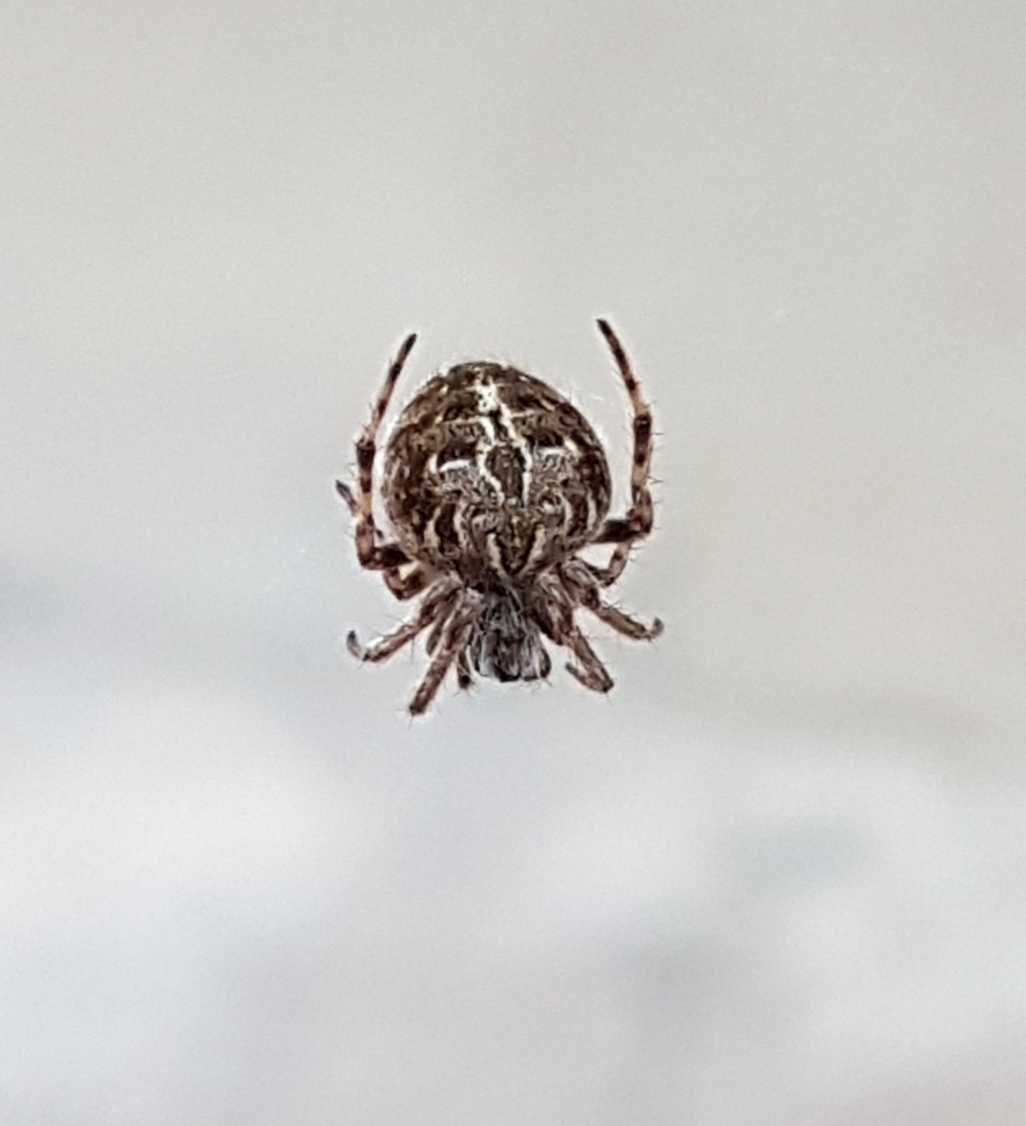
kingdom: Animalia
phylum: Arthropoda
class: Arachnida
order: Araneae
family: Araneidae
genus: Agalenatea
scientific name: Agalenatea redii
